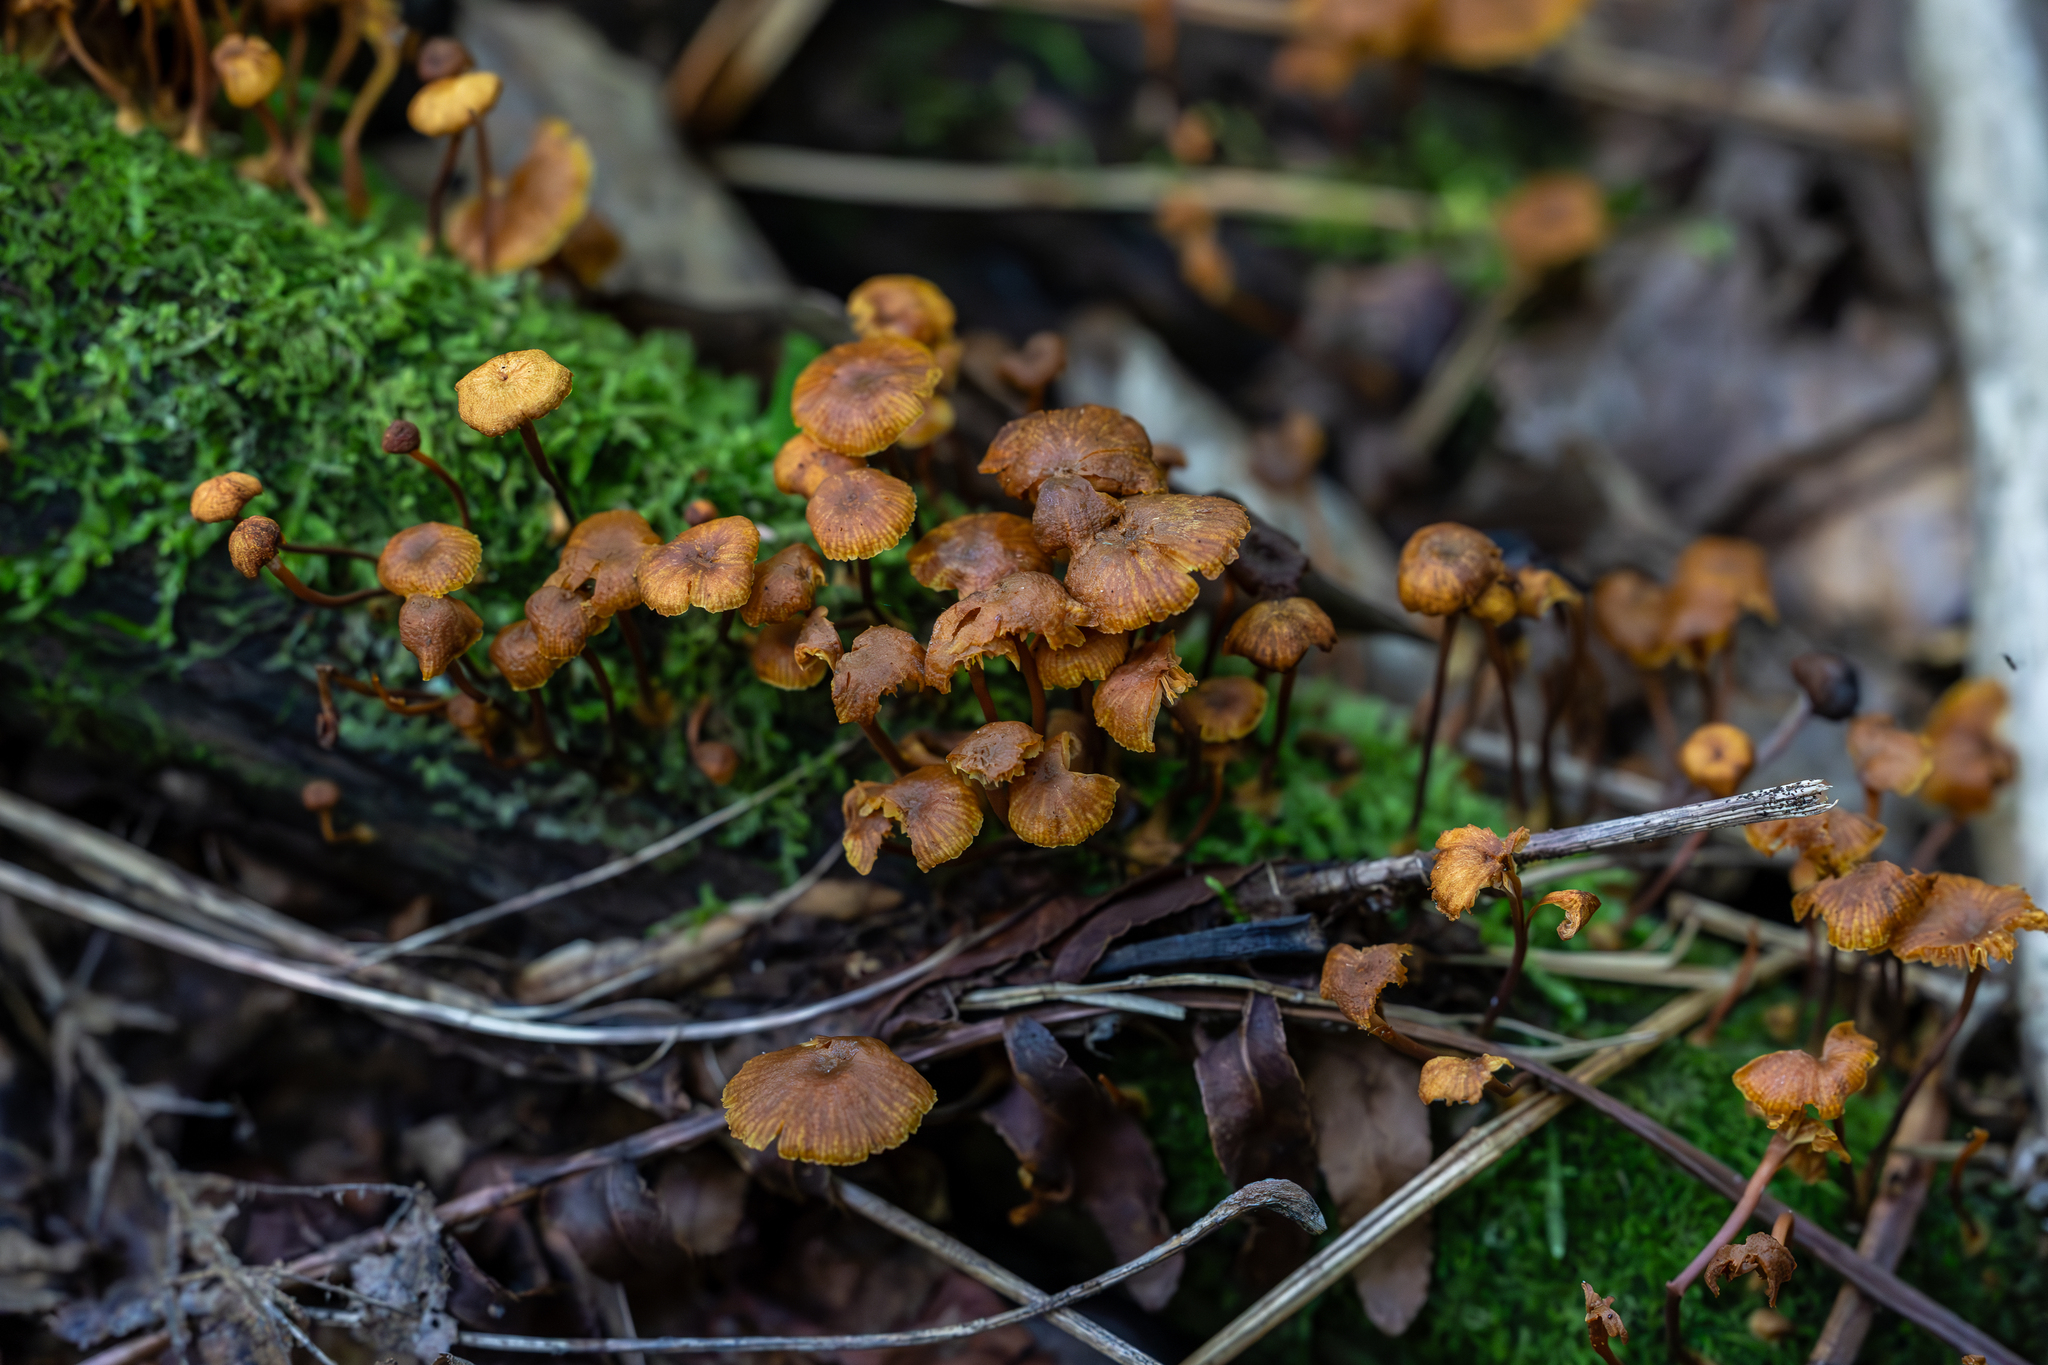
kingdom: Fungi
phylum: Basidiomycota
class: Agaricomycetes
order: Agaricales
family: Mycenaceae
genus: Xeromphalina
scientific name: Xeromphalina campanella
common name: Pinewood gingertail
